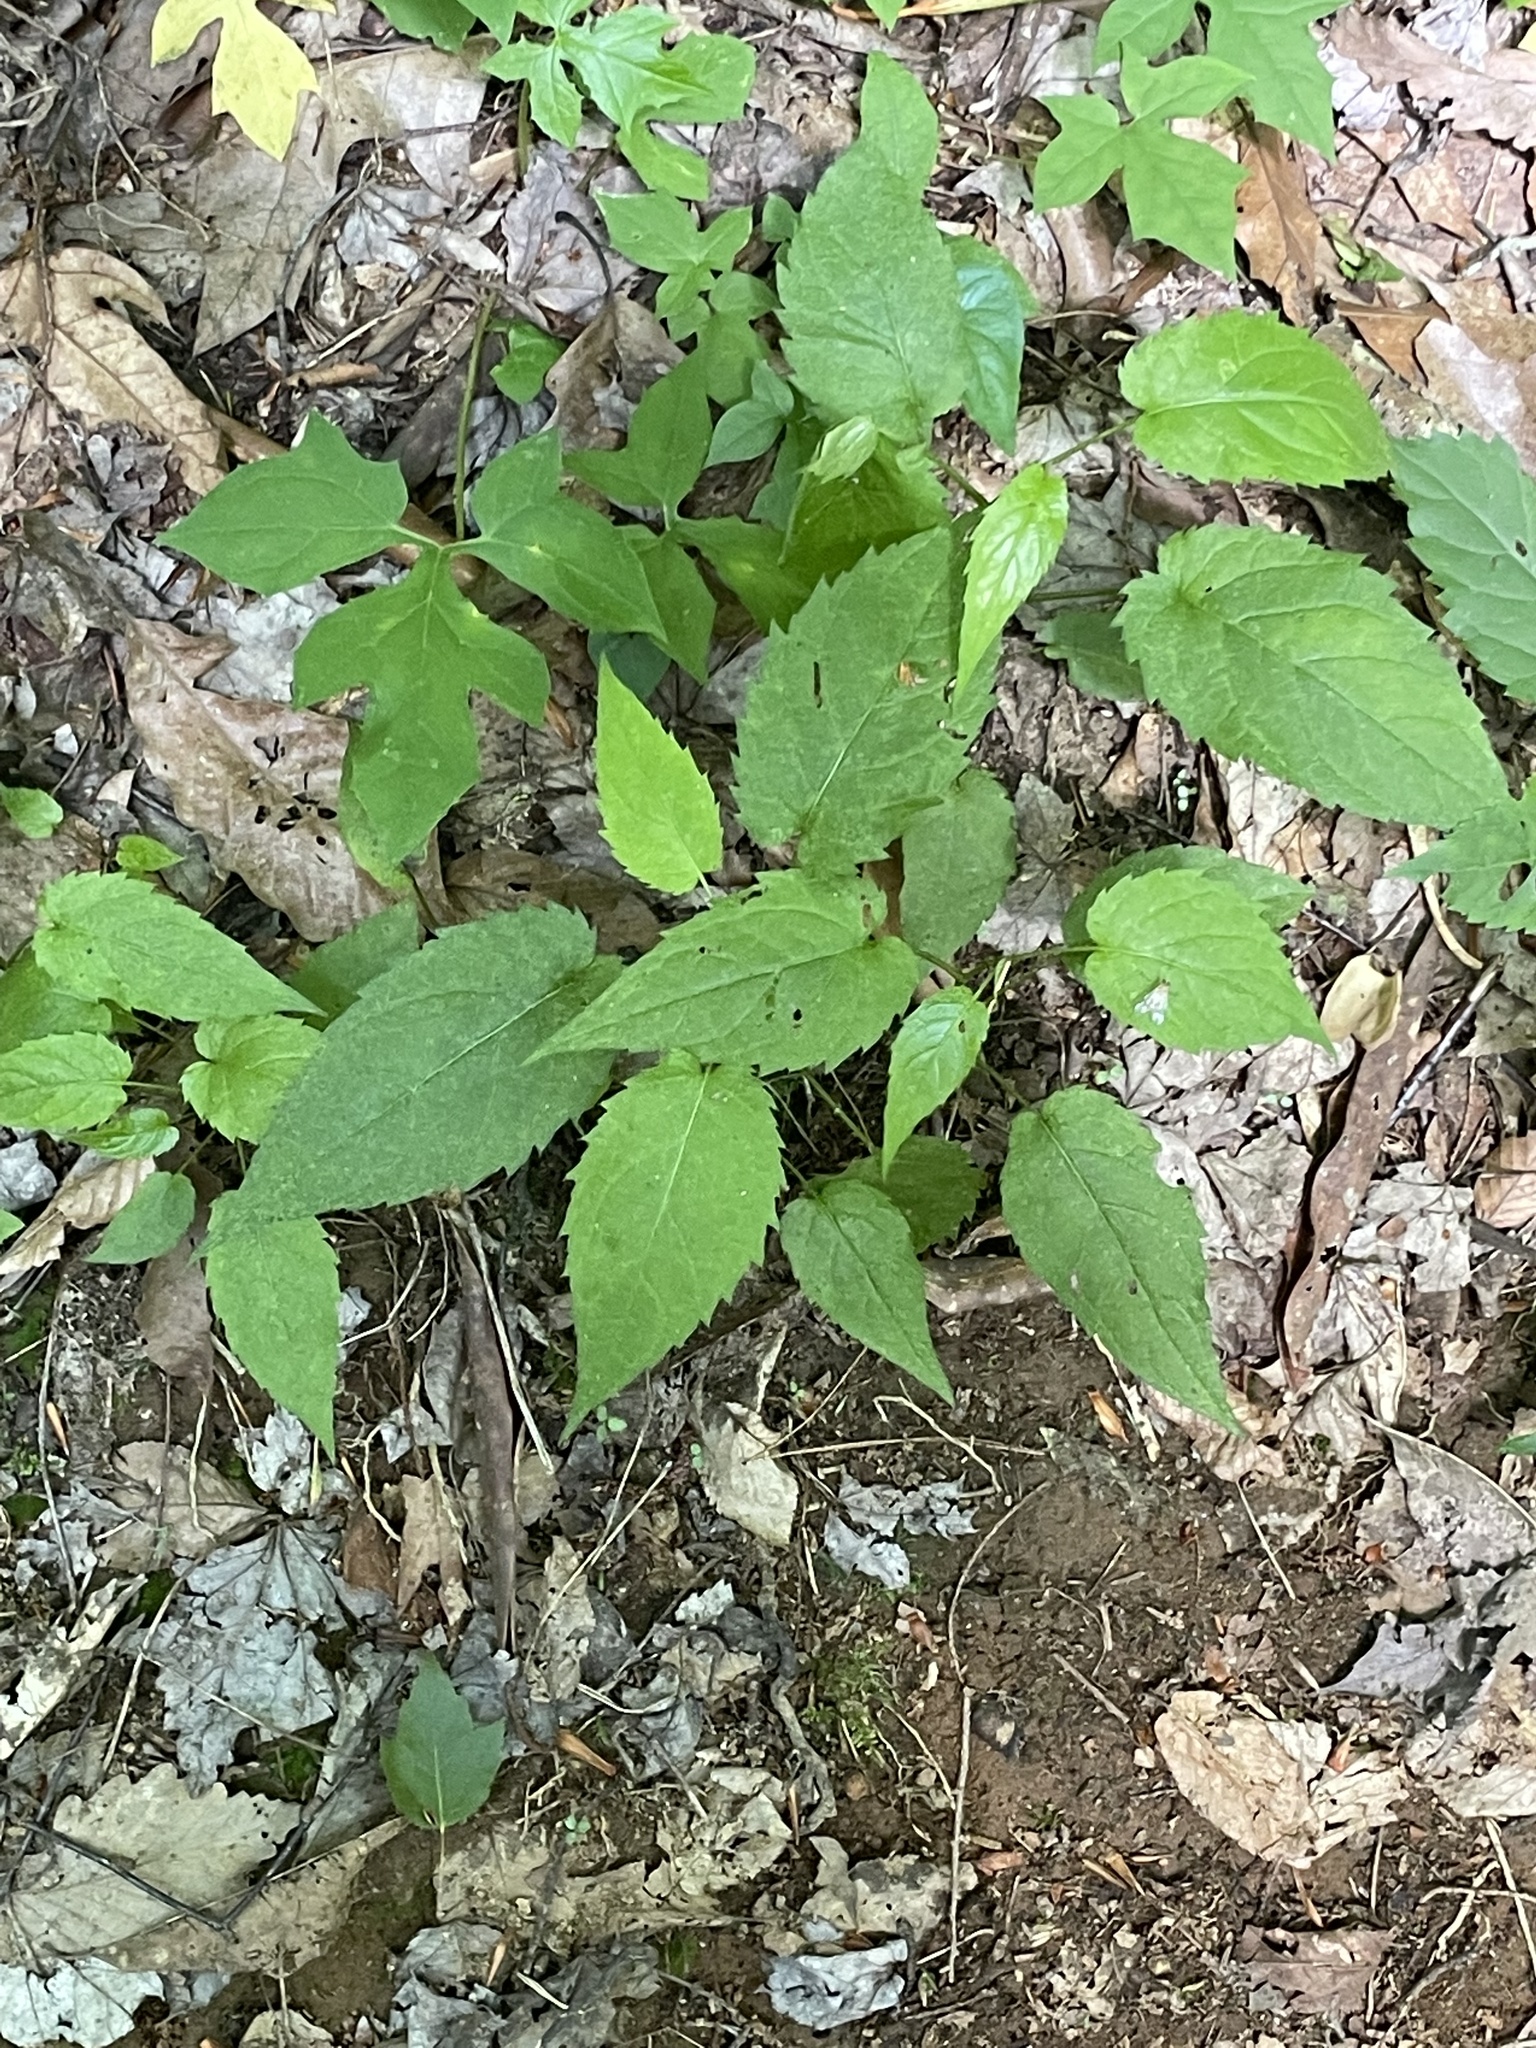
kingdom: Plantae
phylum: Tracheophyta
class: Magnoliopsida
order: Asterales
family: Asteraceae
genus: Eurybia
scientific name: Eurybia divaricata
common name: White wood aster
